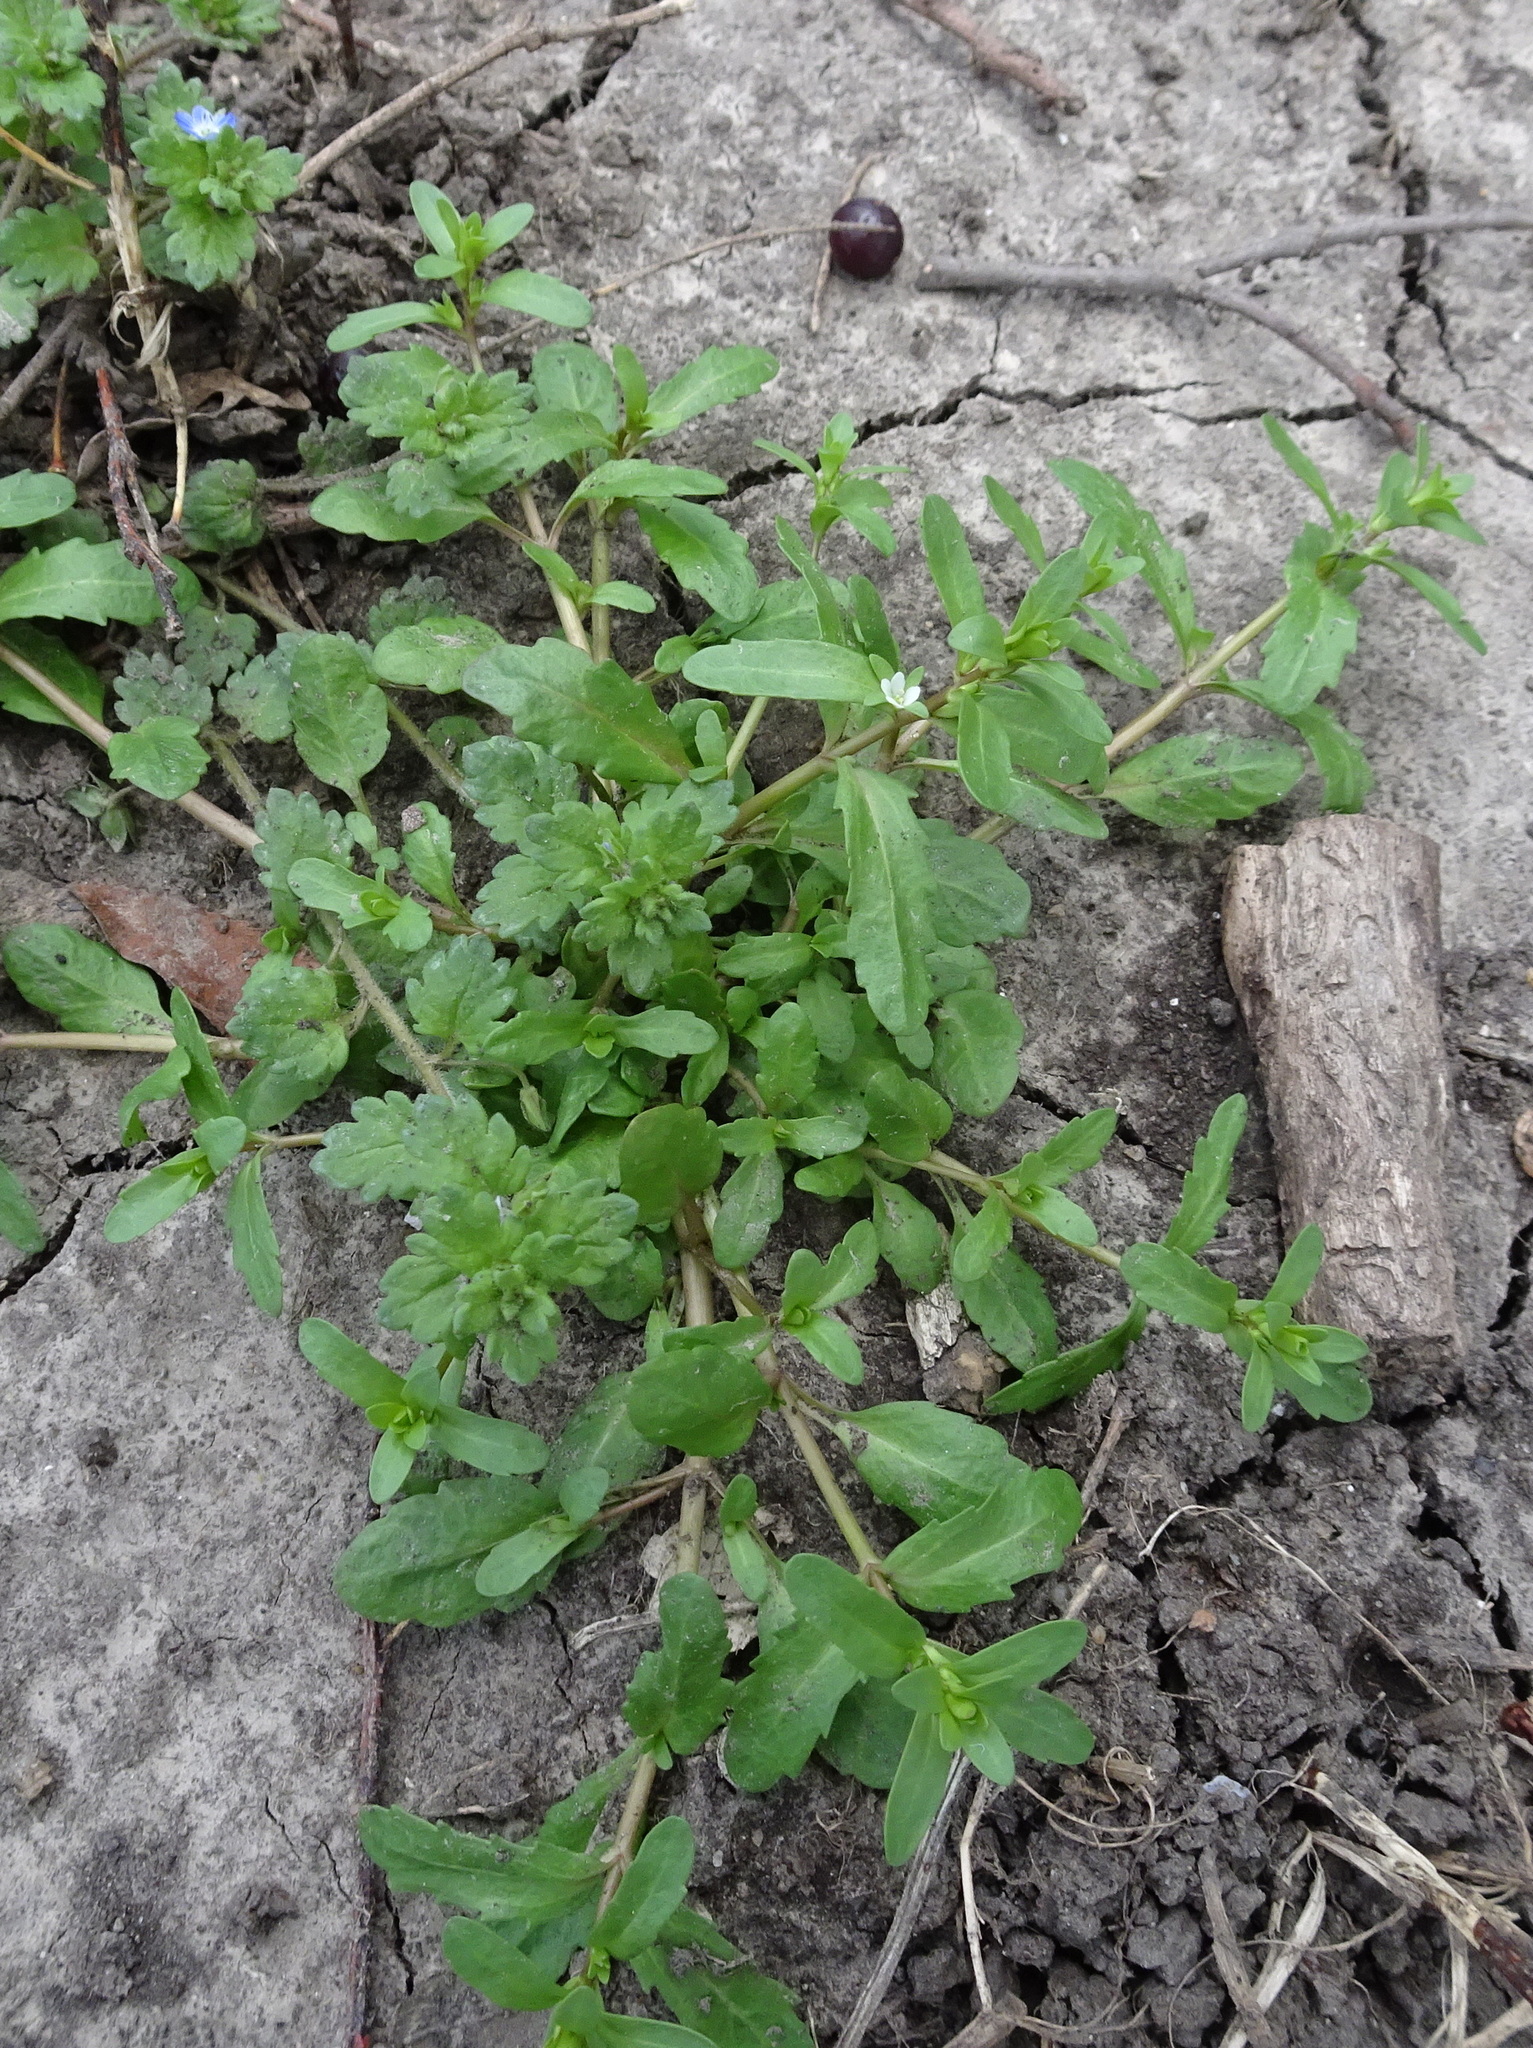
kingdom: Plantae
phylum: Tracheophyta
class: Magnoliopsida
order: Lamiales
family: Plantaginaceae
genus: Veronica
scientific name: Veronica peregrina
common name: Neckweed
